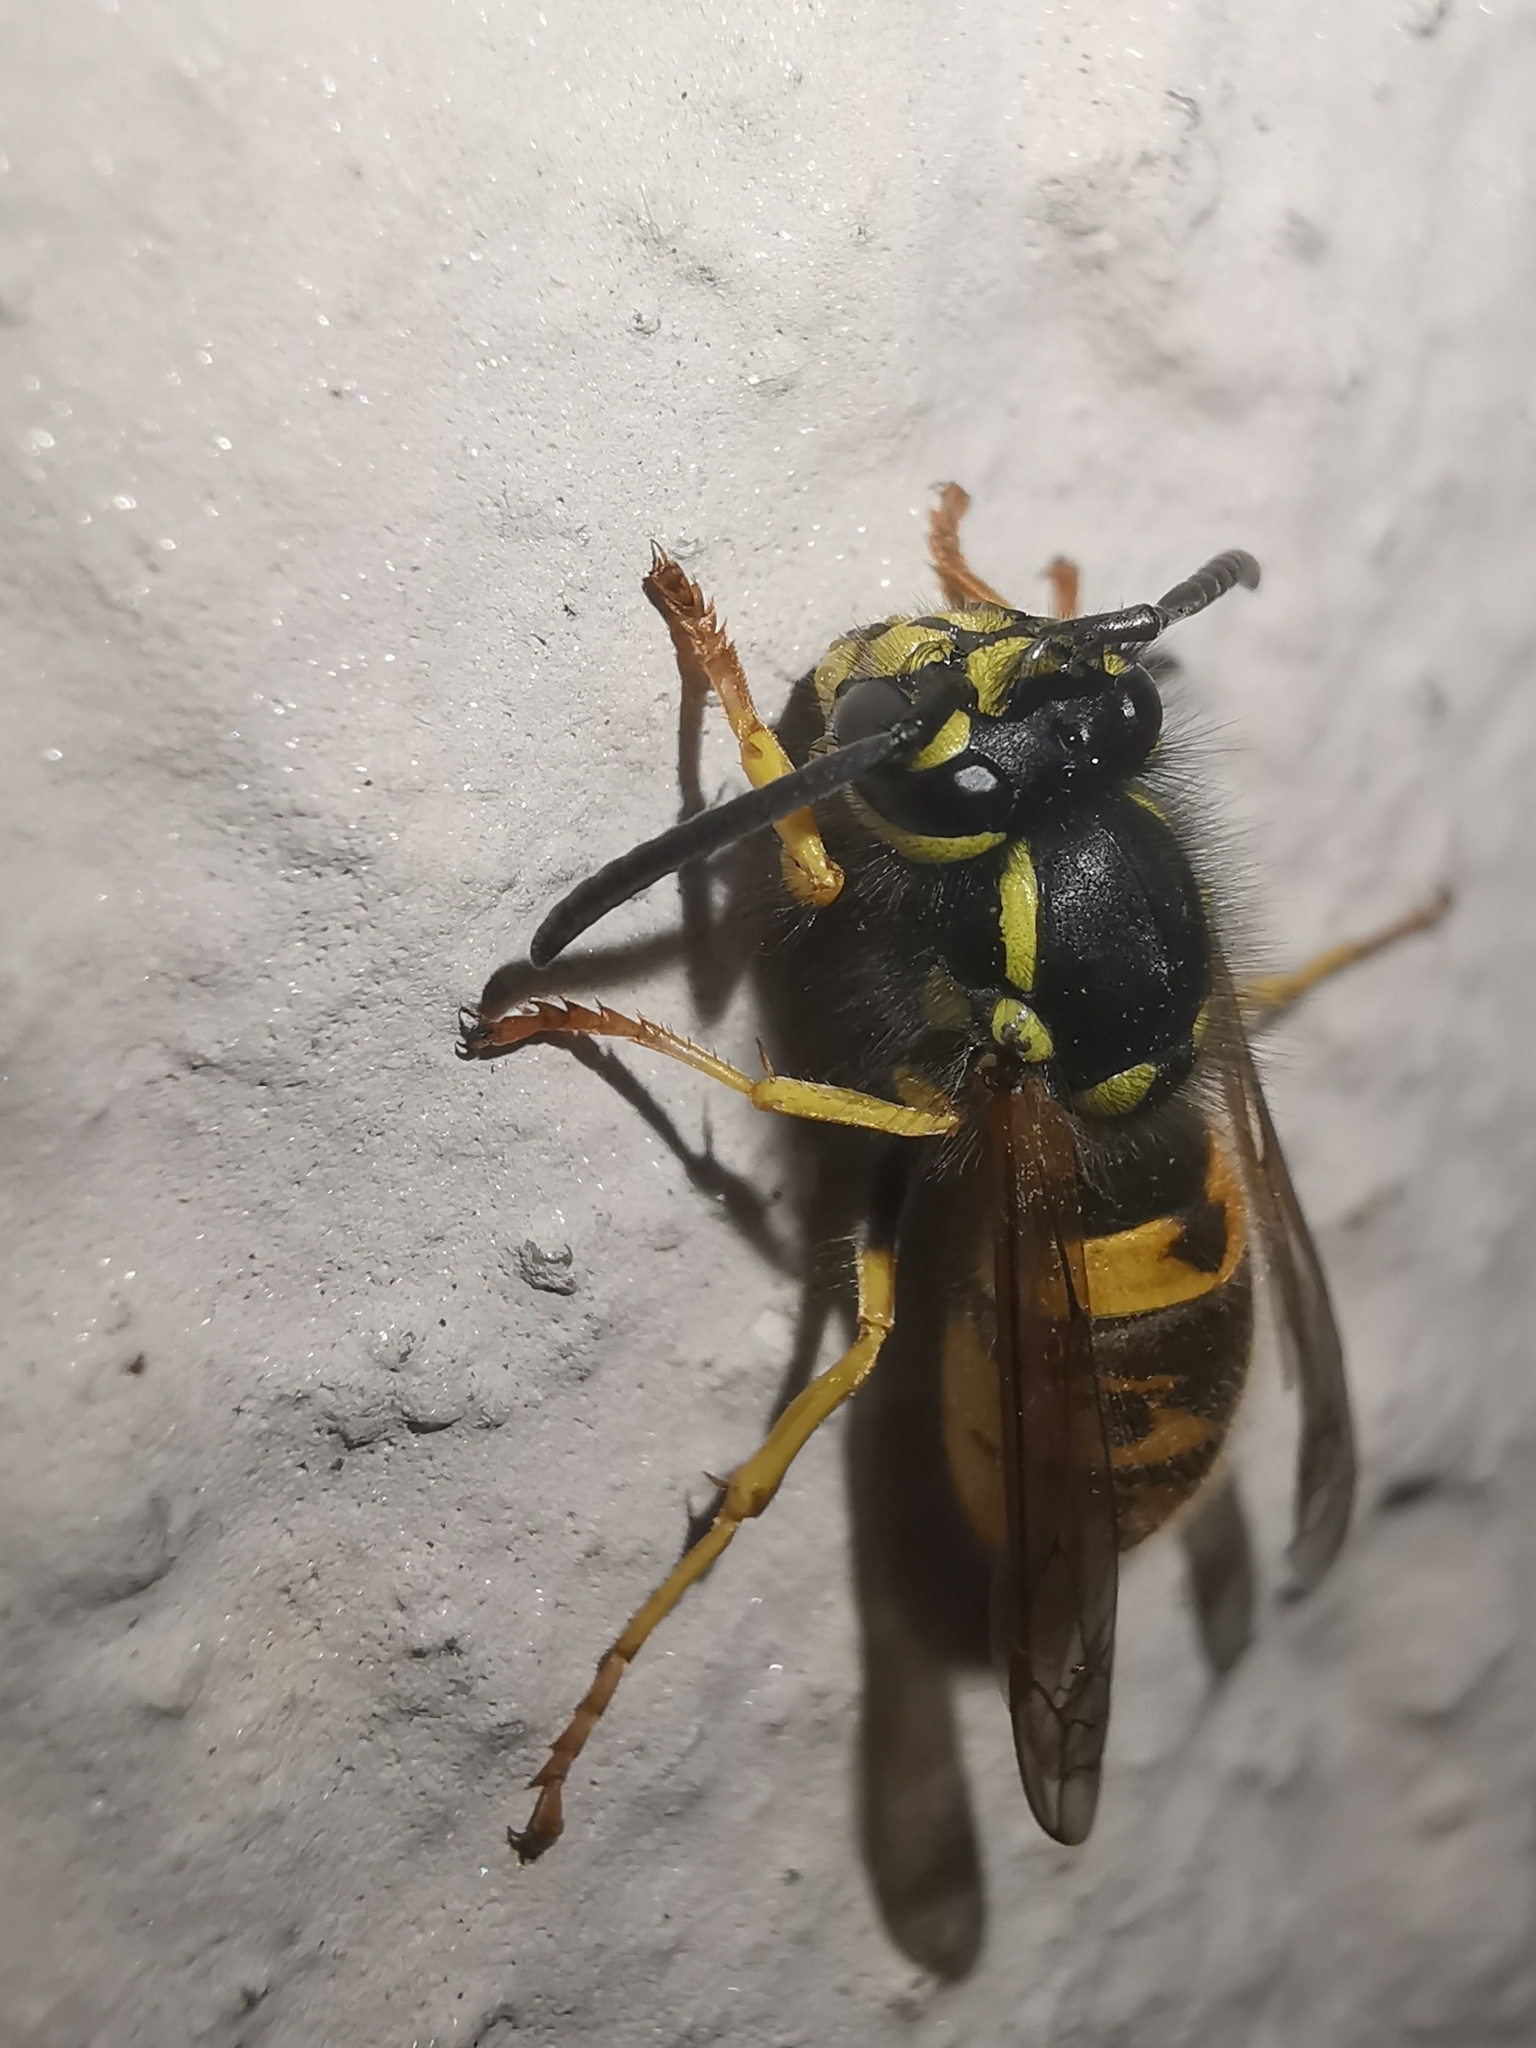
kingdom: Animalia
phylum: Arthropoda
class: Insecta
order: Hymenoptera
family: Vespidae
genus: Vespula
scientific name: Vespula germanica
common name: German wasp
